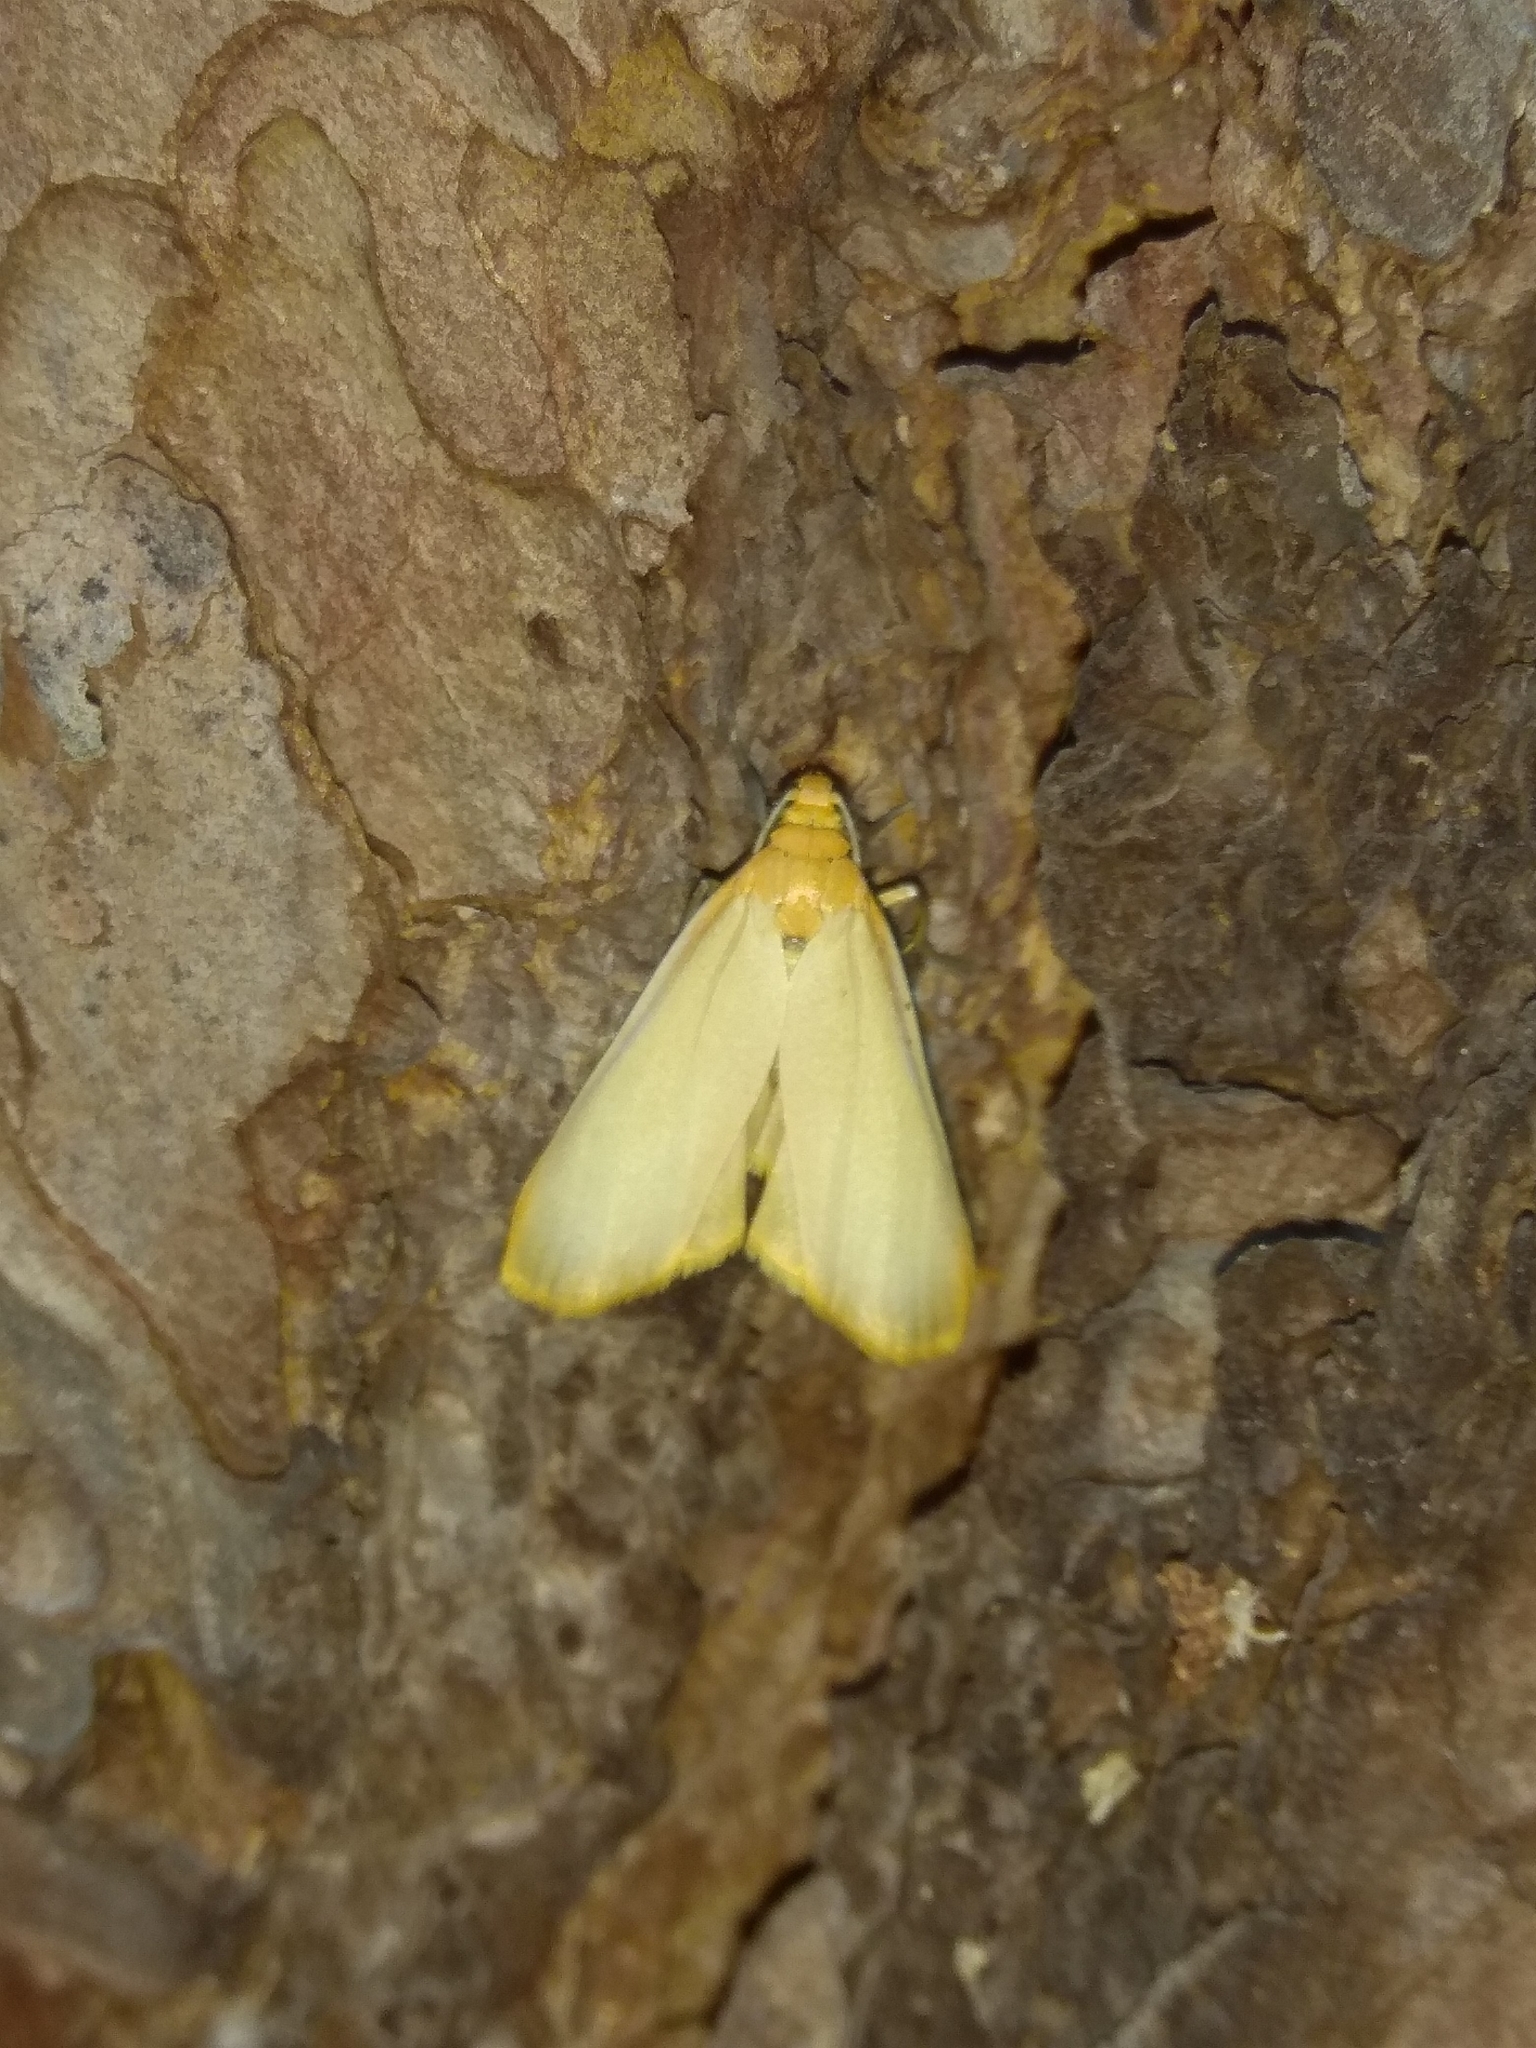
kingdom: Animalia
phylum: Arthropoda
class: Insecta
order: Lepidoptera
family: Erebidae
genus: Katha
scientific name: Katha depressa
